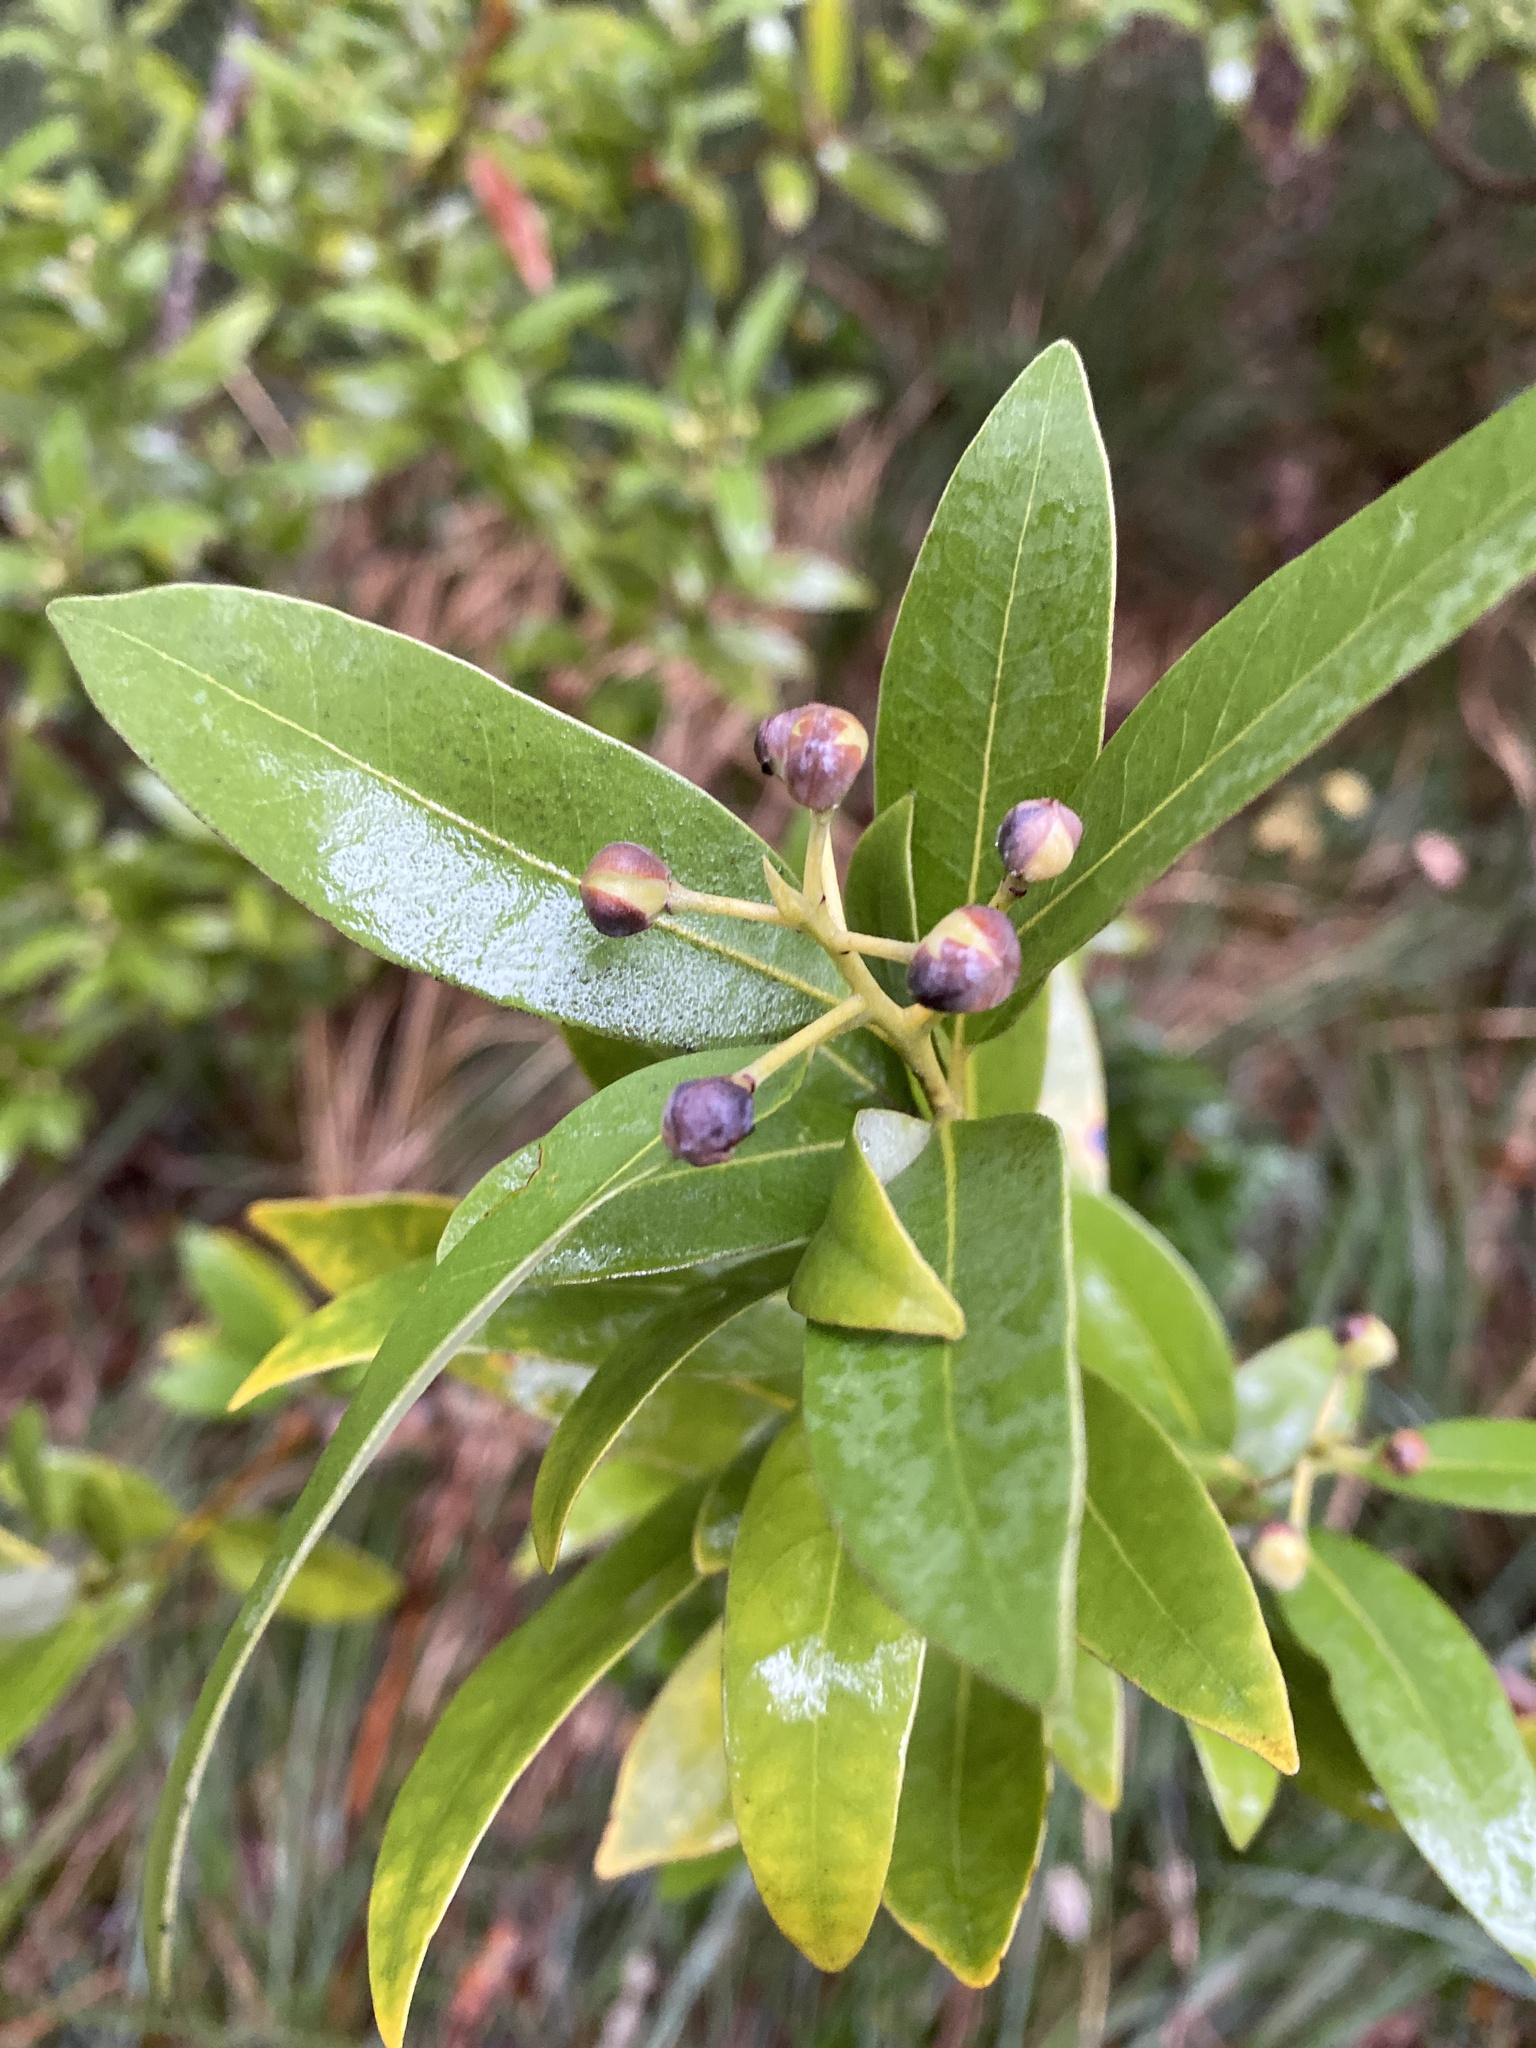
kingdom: Plantae
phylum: Tracheophyta
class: Magnoliopsida
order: Laurales
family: Lauraceae
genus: Umbellularia
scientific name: Umbellularia californica
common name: California bay
